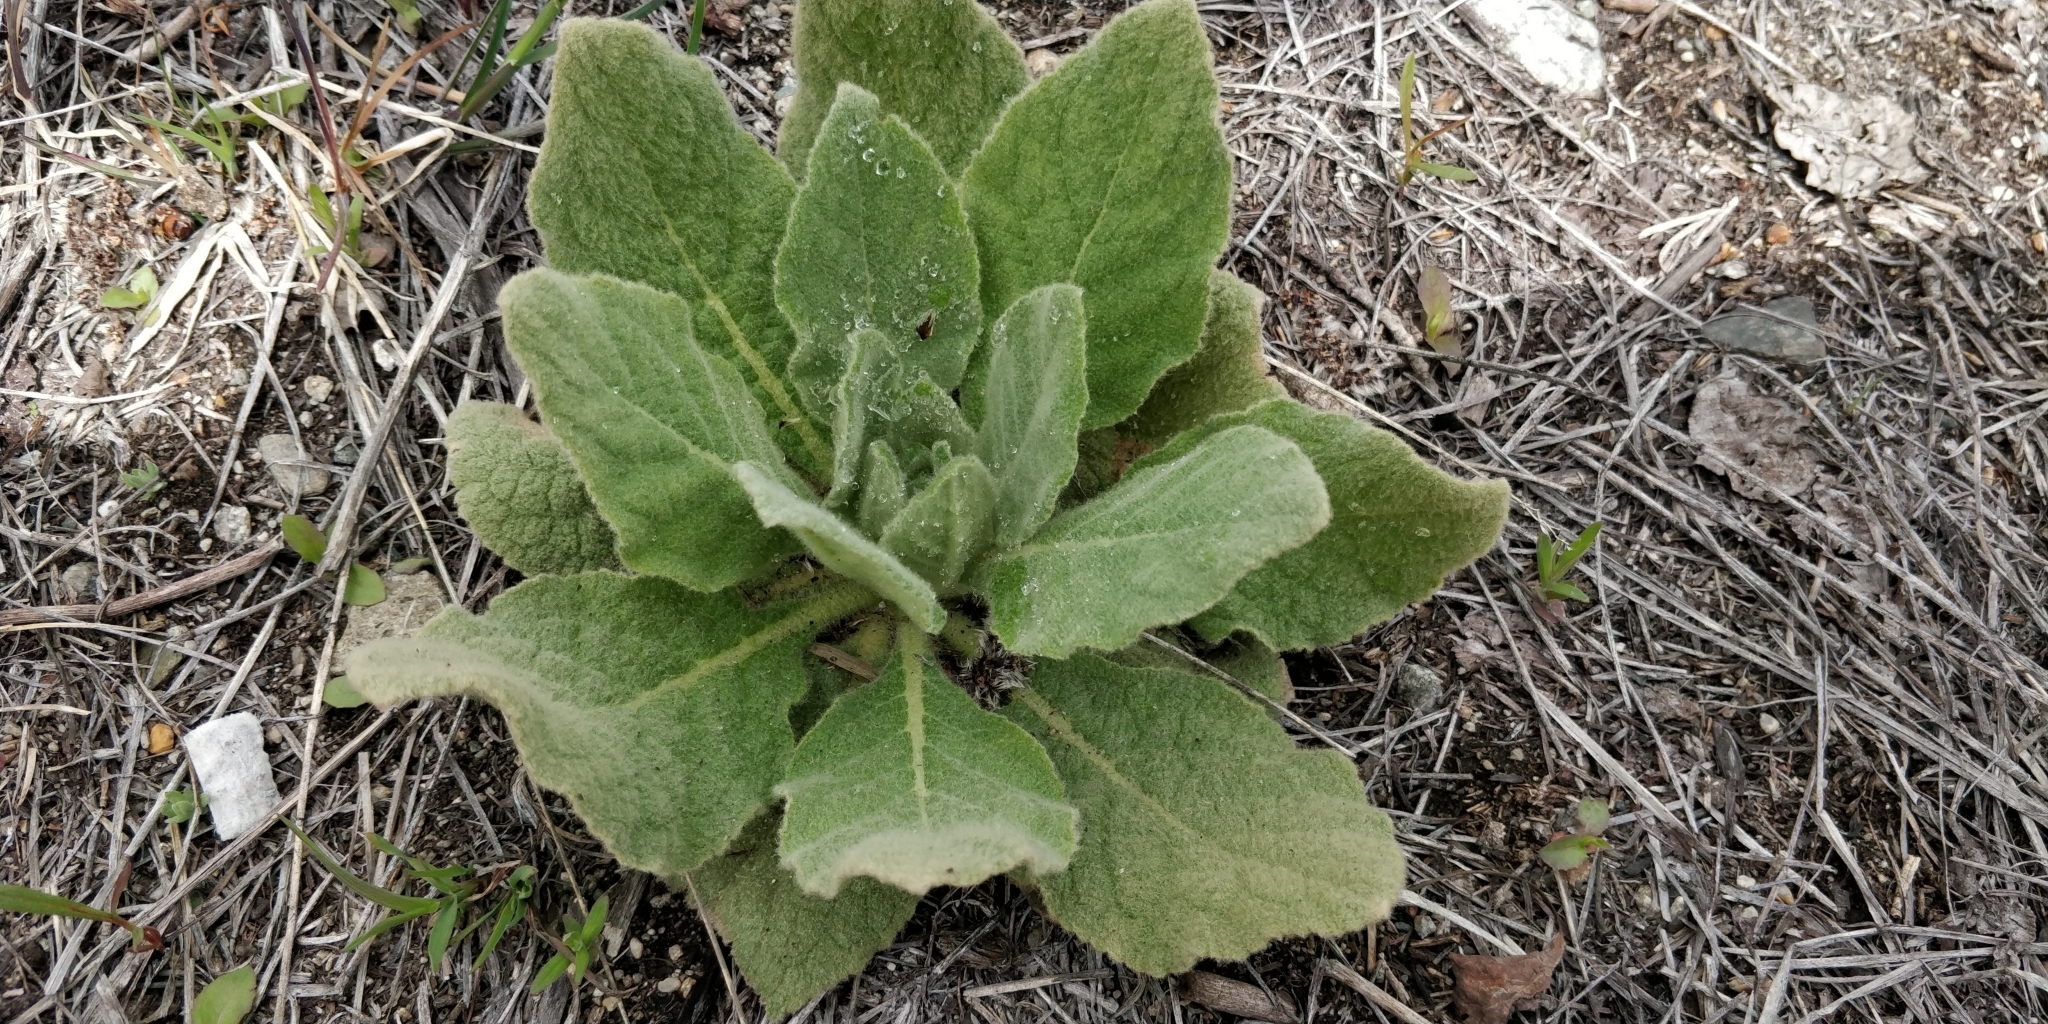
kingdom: Plantae
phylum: Tracheophyta
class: Magnoliopsida
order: Lamiales
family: Scrophulariaceae
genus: Verbascum
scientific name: Verbascum thapsus
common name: Common mullein
